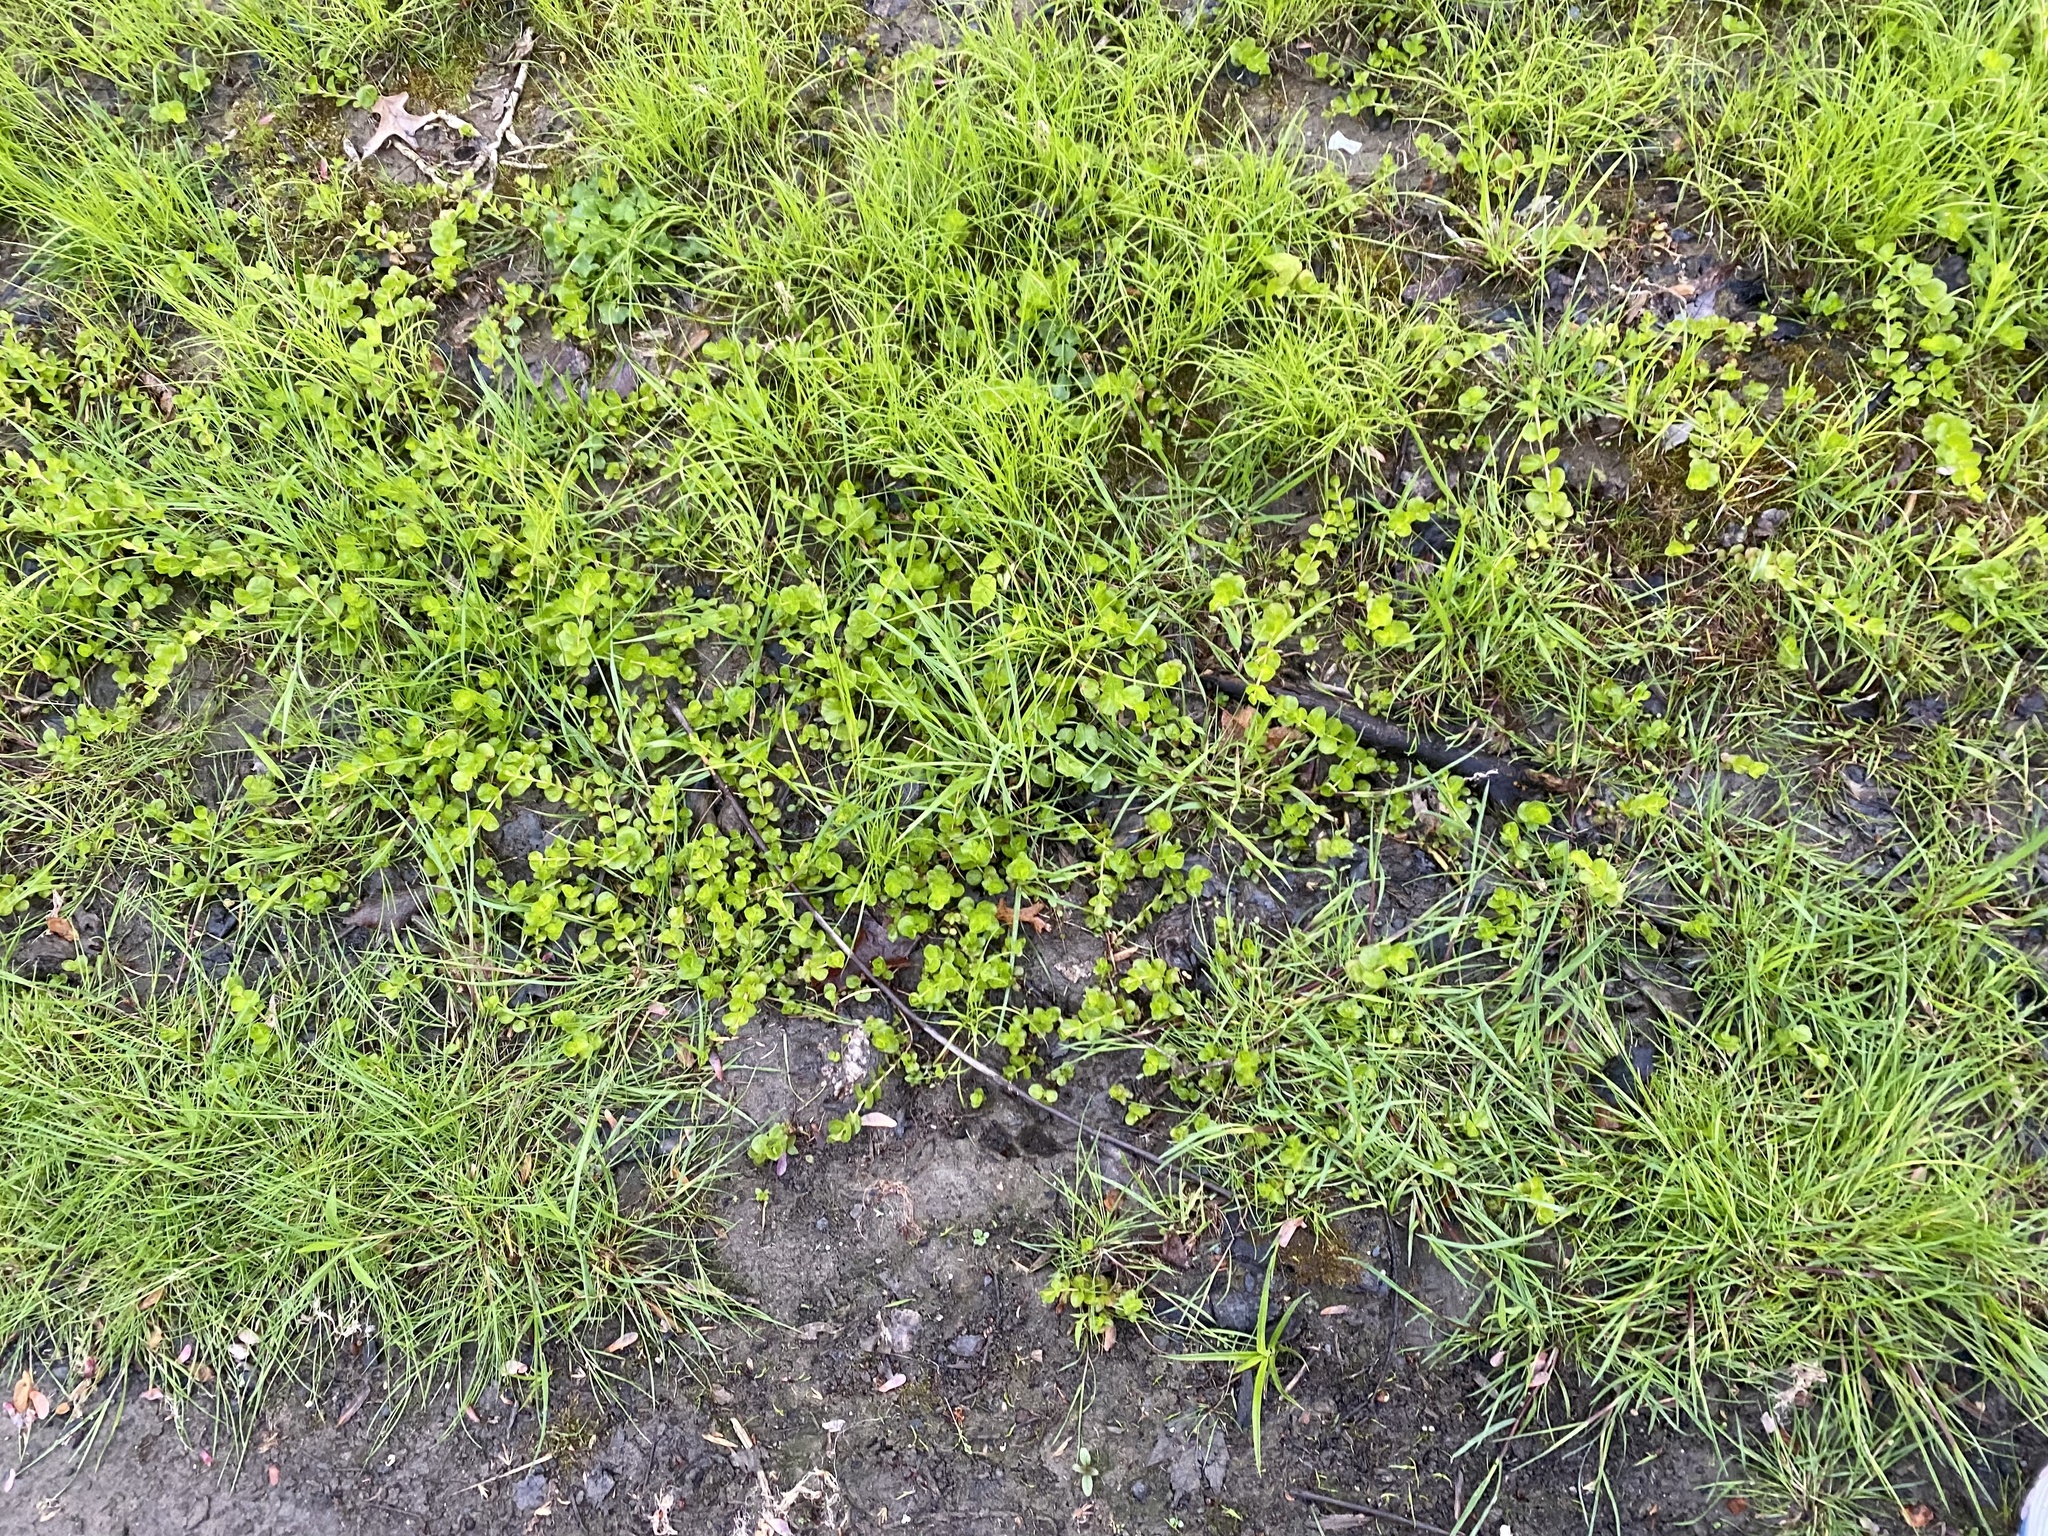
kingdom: Plantae
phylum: Tracheophyta
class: Magnoliopsida
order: Ericales
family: Primulaceae
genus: Lysimachia
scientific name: Lysimachia nummularia
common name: Moneywort
